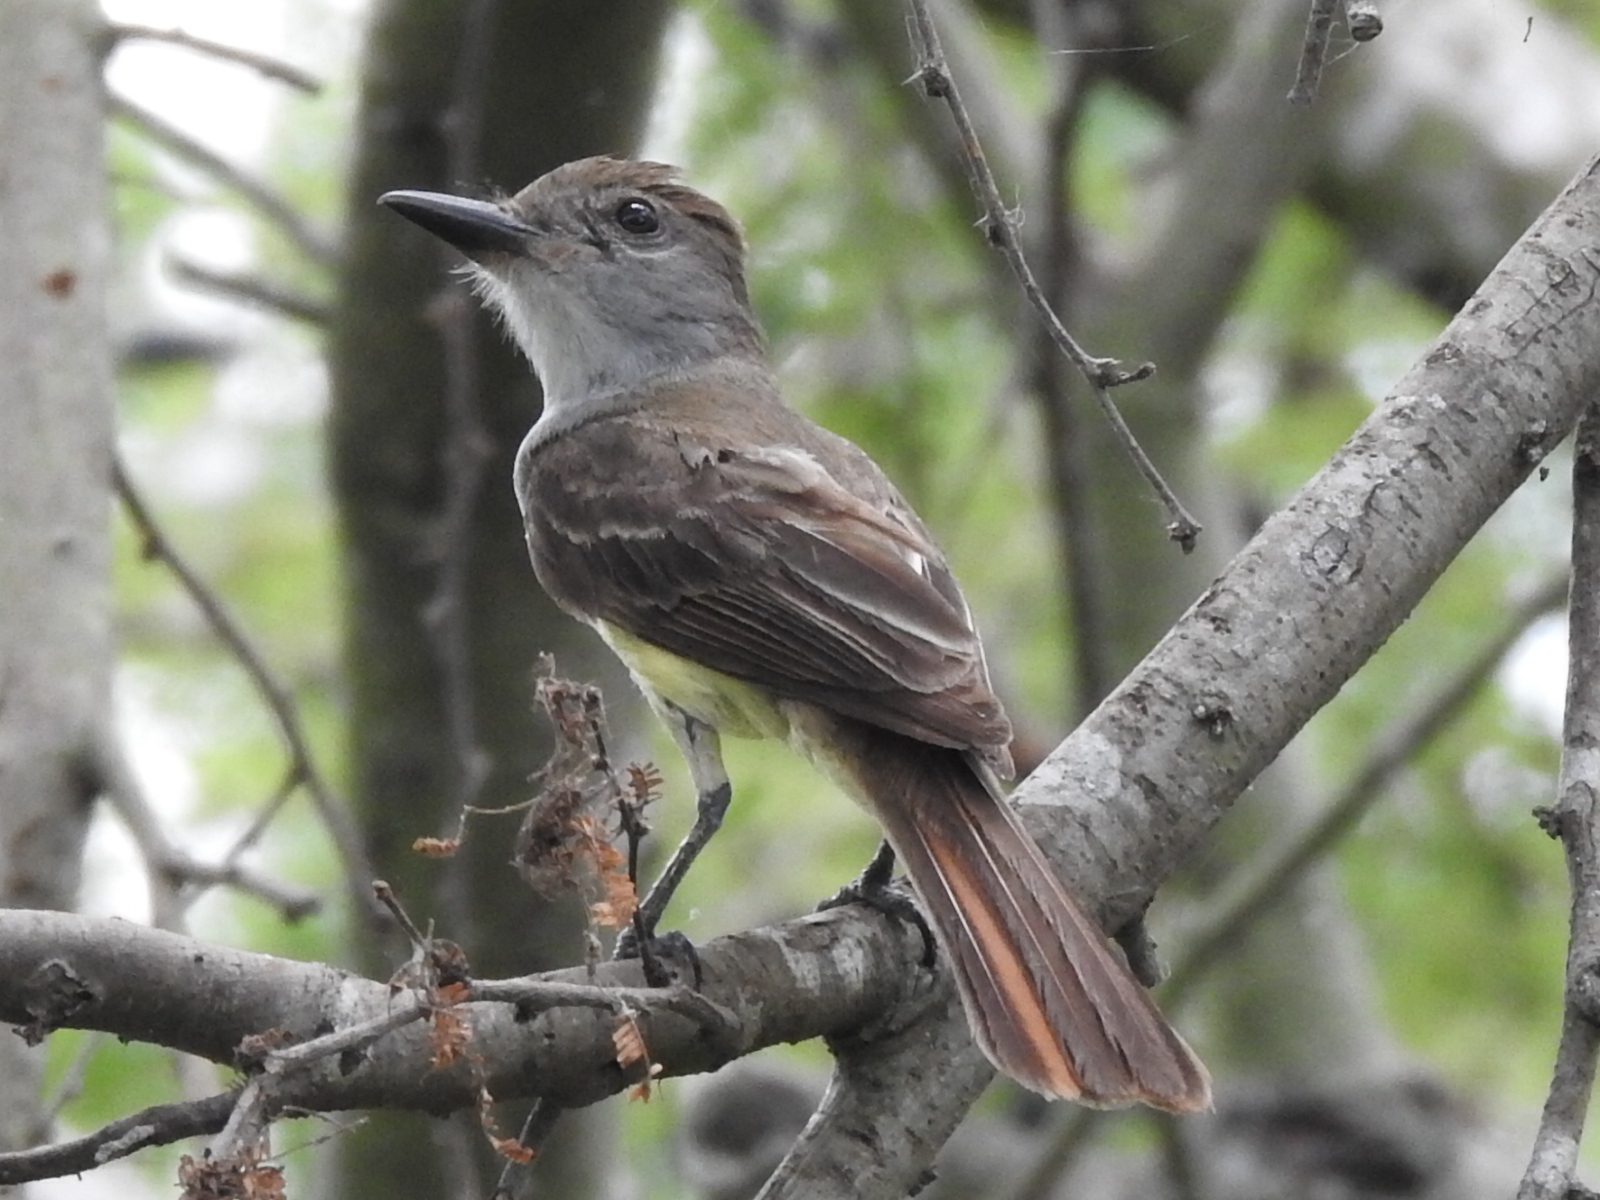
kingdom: Animalia
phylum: Chordata
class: Aves
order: Passeriformes
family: Tyrannidae
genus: Myiarchus
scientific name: Myiarchus tyrannulus
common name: Brown-crested flycatcher
